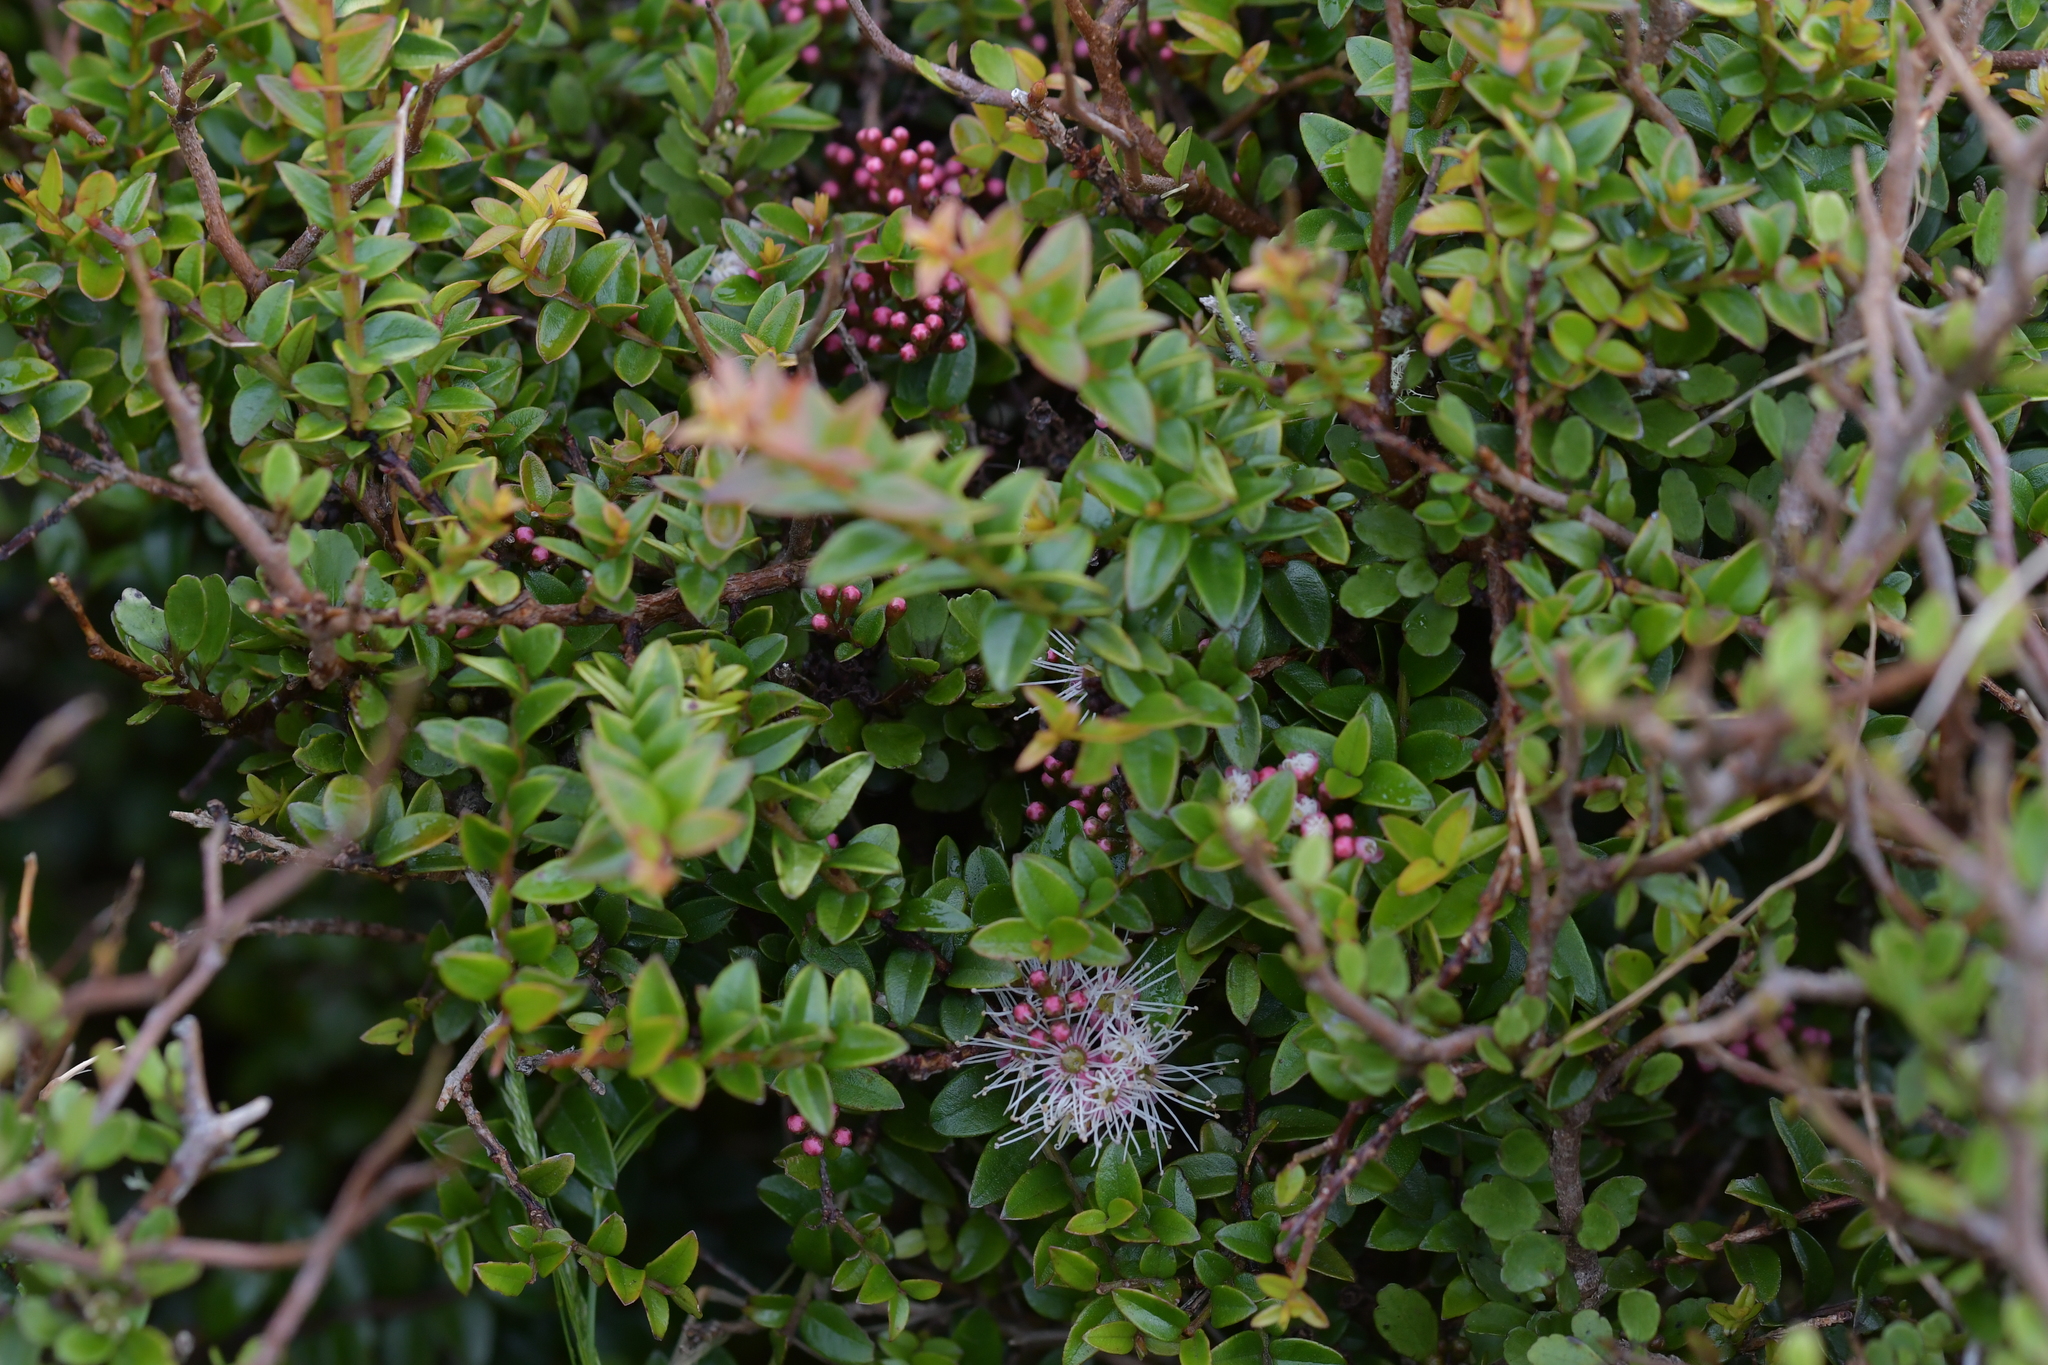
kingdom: Plantae
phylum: Tracheophyta
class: Magnoliopsida
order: Myrtales
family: Myrtaceae
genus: Metrosideros
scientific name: Metrosideros diffusa
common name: Small ratavine
